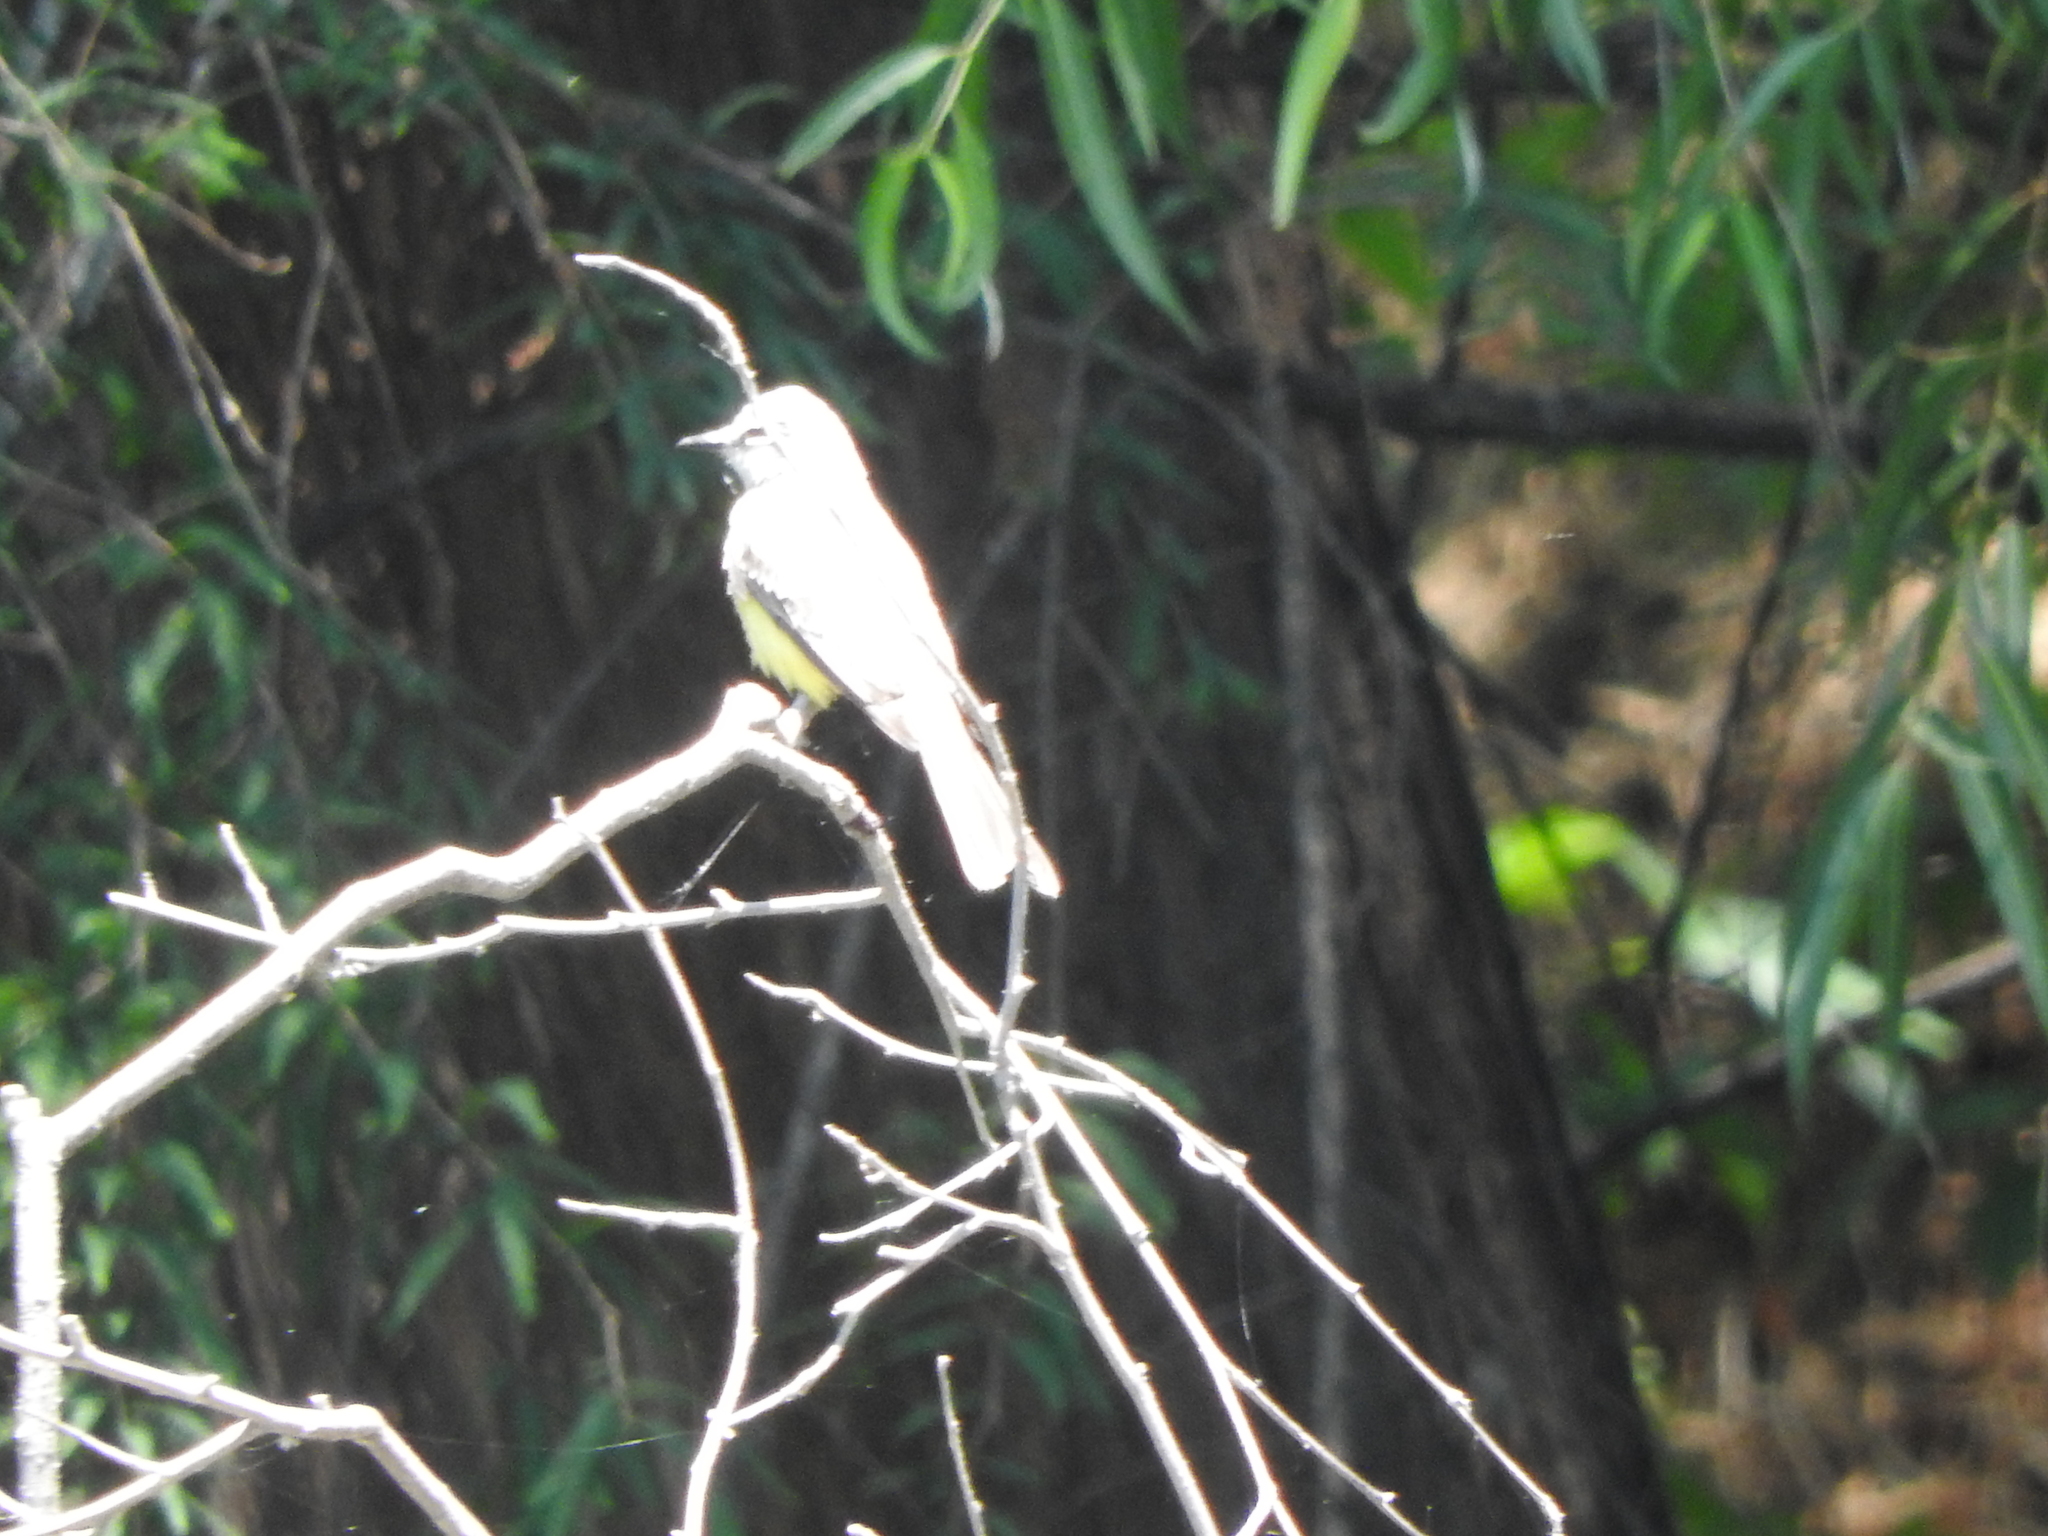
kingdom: Animalia
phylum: Chordata
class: Aves
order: Passeriformes
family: Tyrannidae
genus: Tyrannus
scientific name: Tyrannus melancholicus
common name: Tropical kingbird
